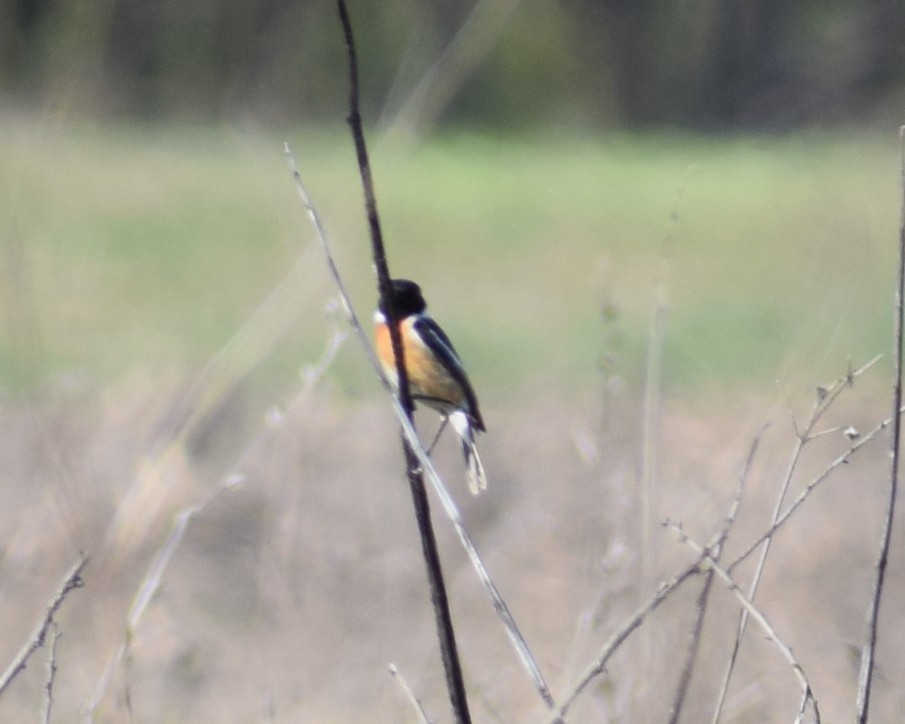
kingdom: Animalia
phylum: Chordata
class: Aves
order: Passeriformes
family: Muscicapidae
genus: Saxicola
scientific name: Saxicola rubicola
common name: European stonechat
